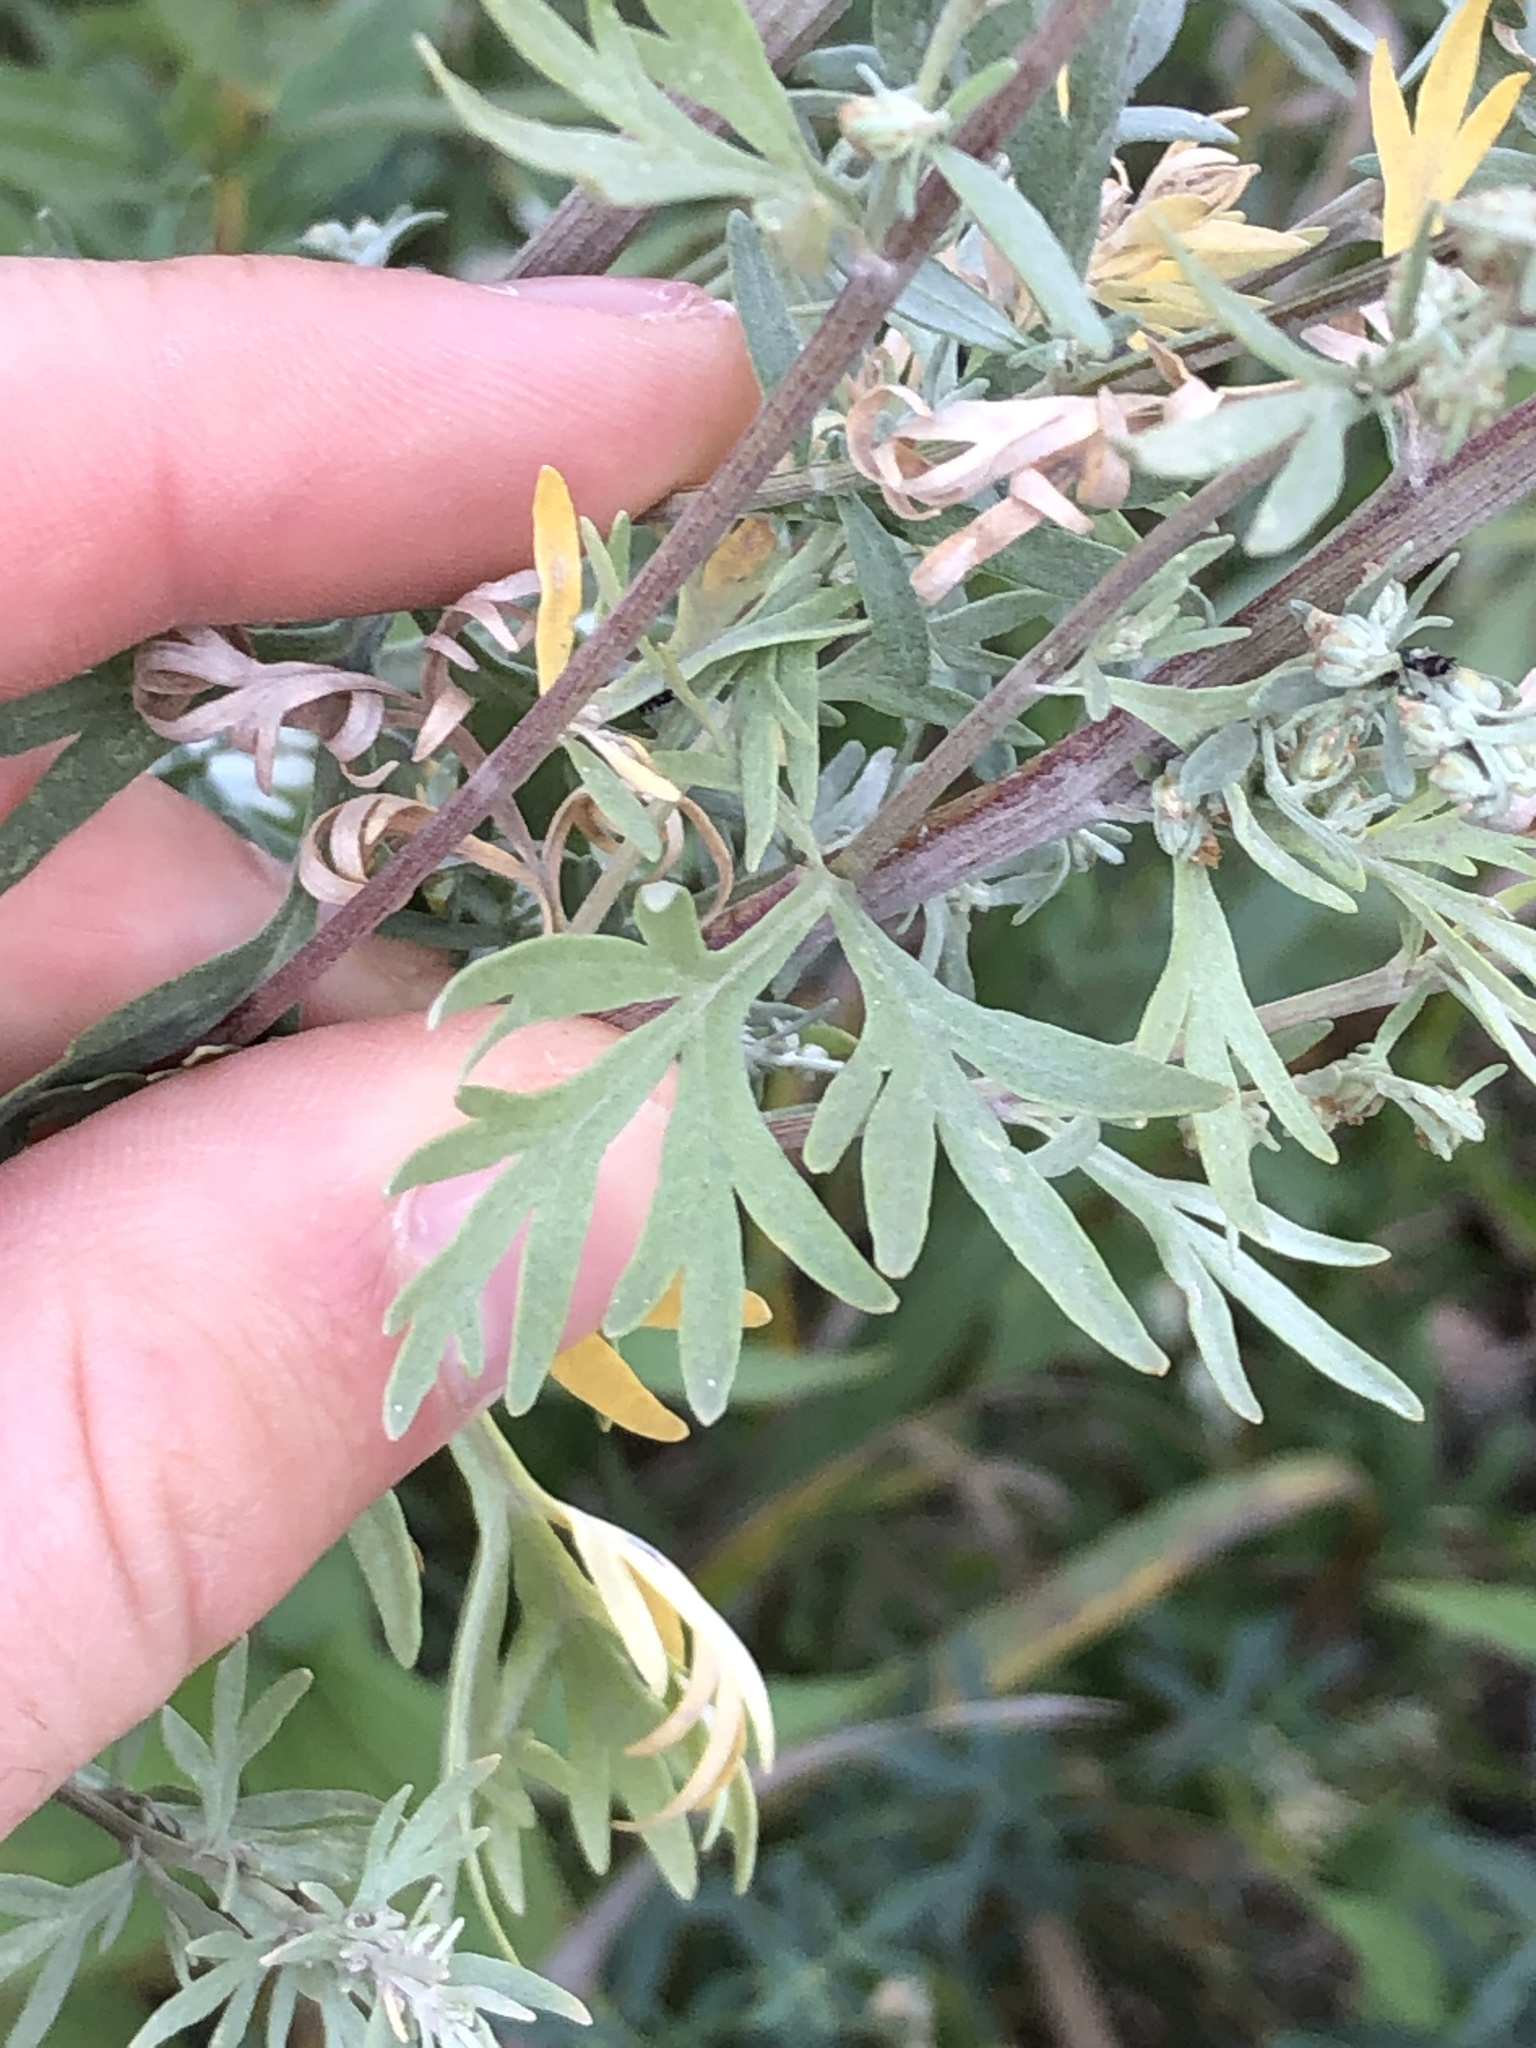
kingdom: Plantae
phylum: Tracheophyta
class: Magnoliopsida
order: Asterales
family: Asteraceae
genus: Artemisia
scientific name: Artemisia absinthium
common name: Wormwood
